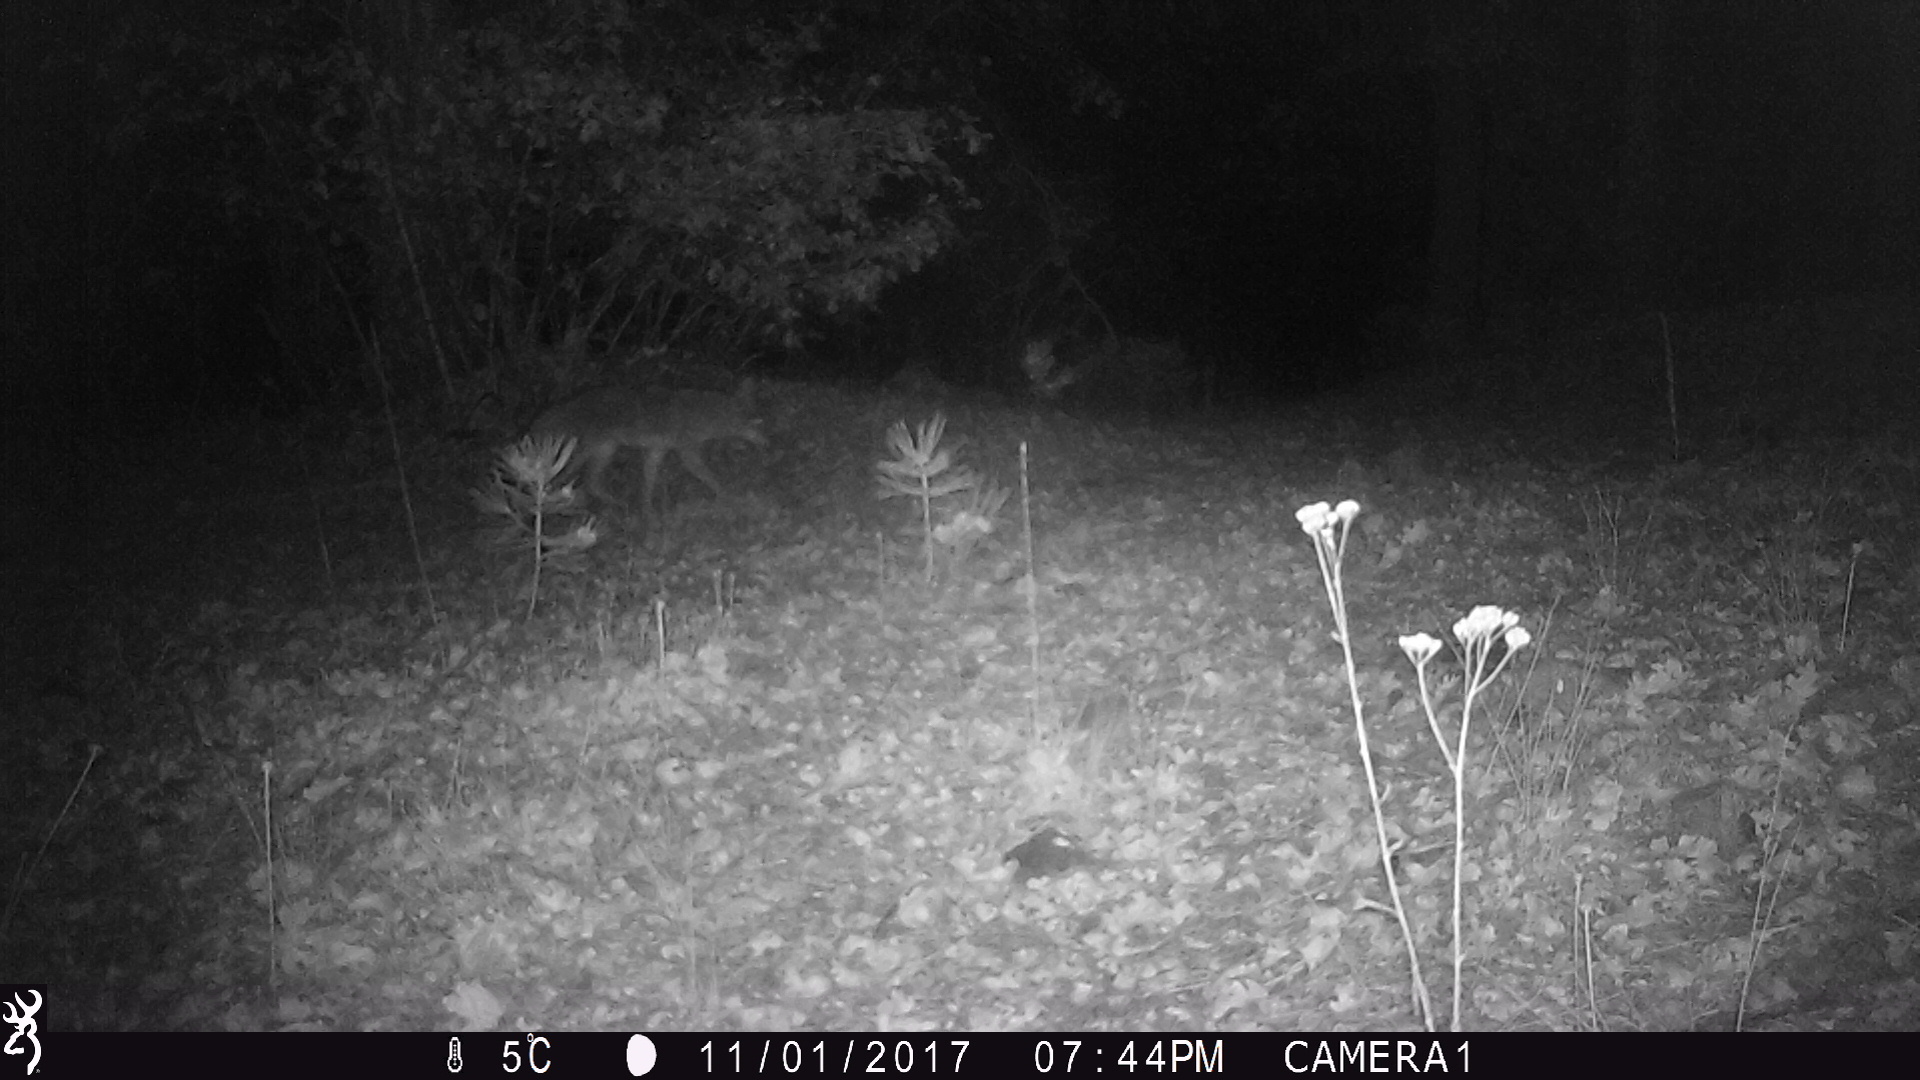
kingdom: Animalia
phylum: Chordata
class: Mammalia
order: Carnivora
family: Canidae
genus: Canis
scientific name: Canis latrans
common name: Coyote
